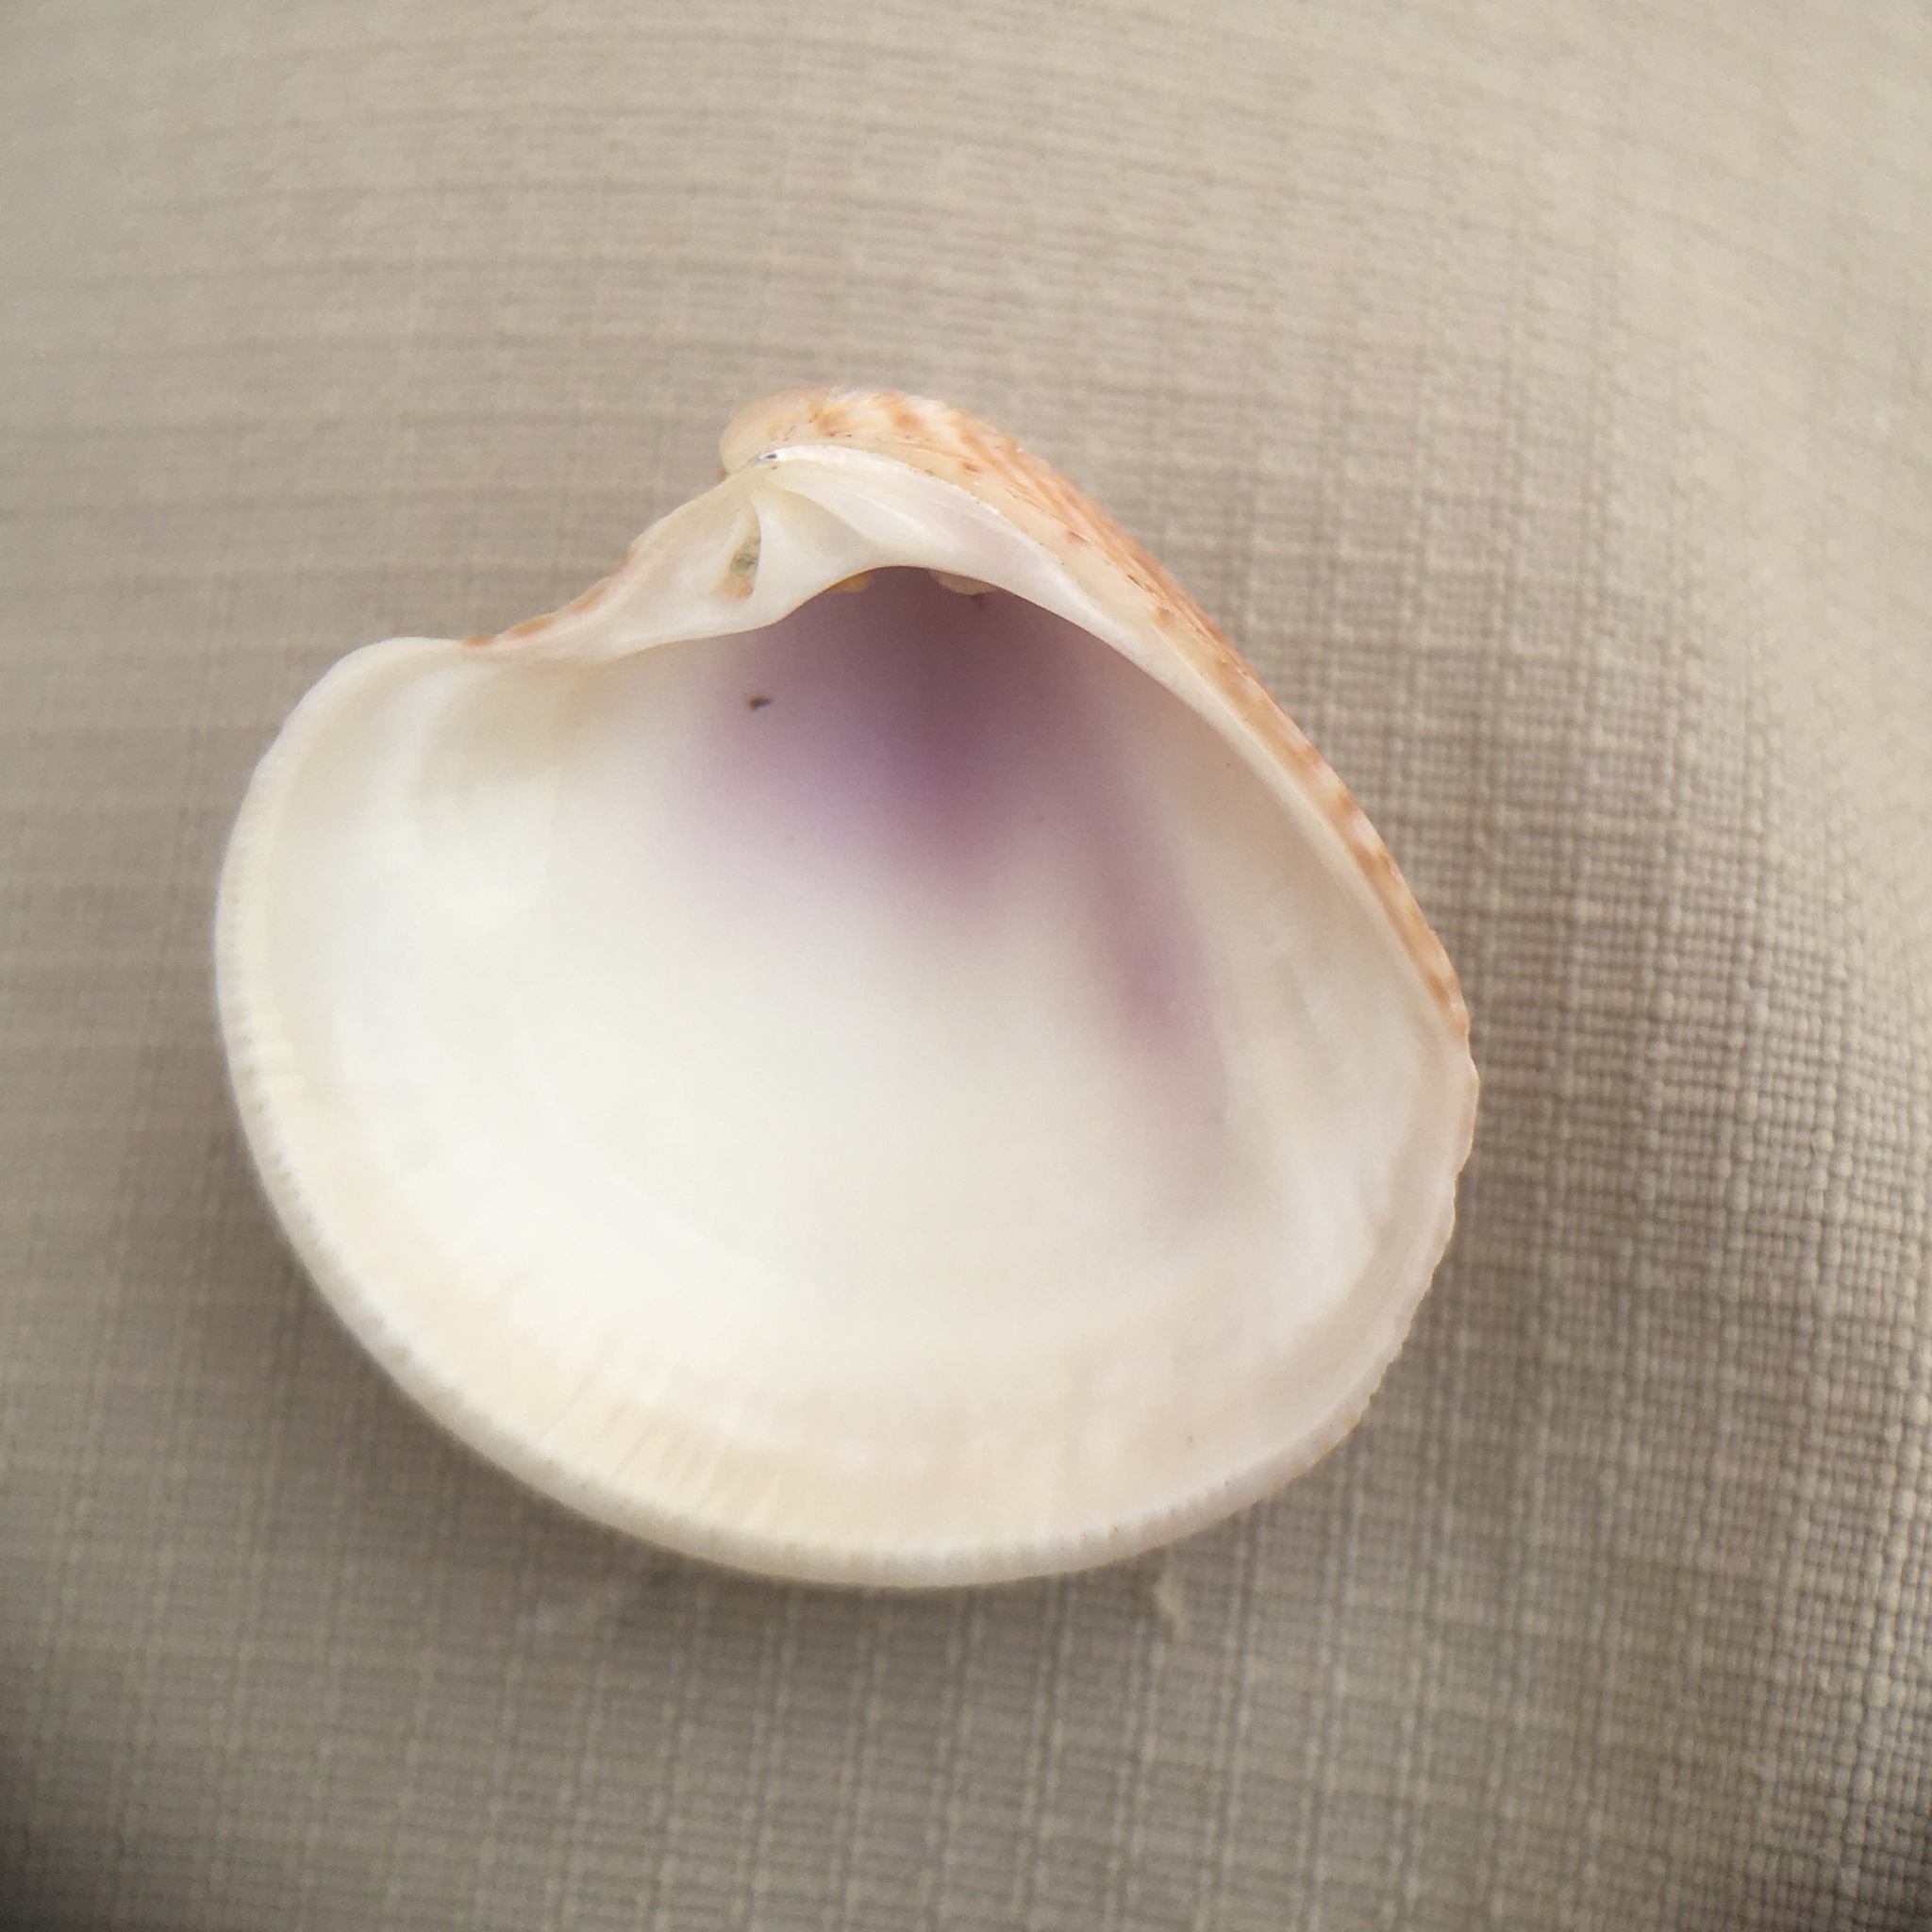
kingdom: Animalia
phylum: Mollusca
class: Bivalvia
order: Venerida
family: Veneridae
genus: Chamelea
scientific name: Chamelea gallina
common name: Chicken venus
